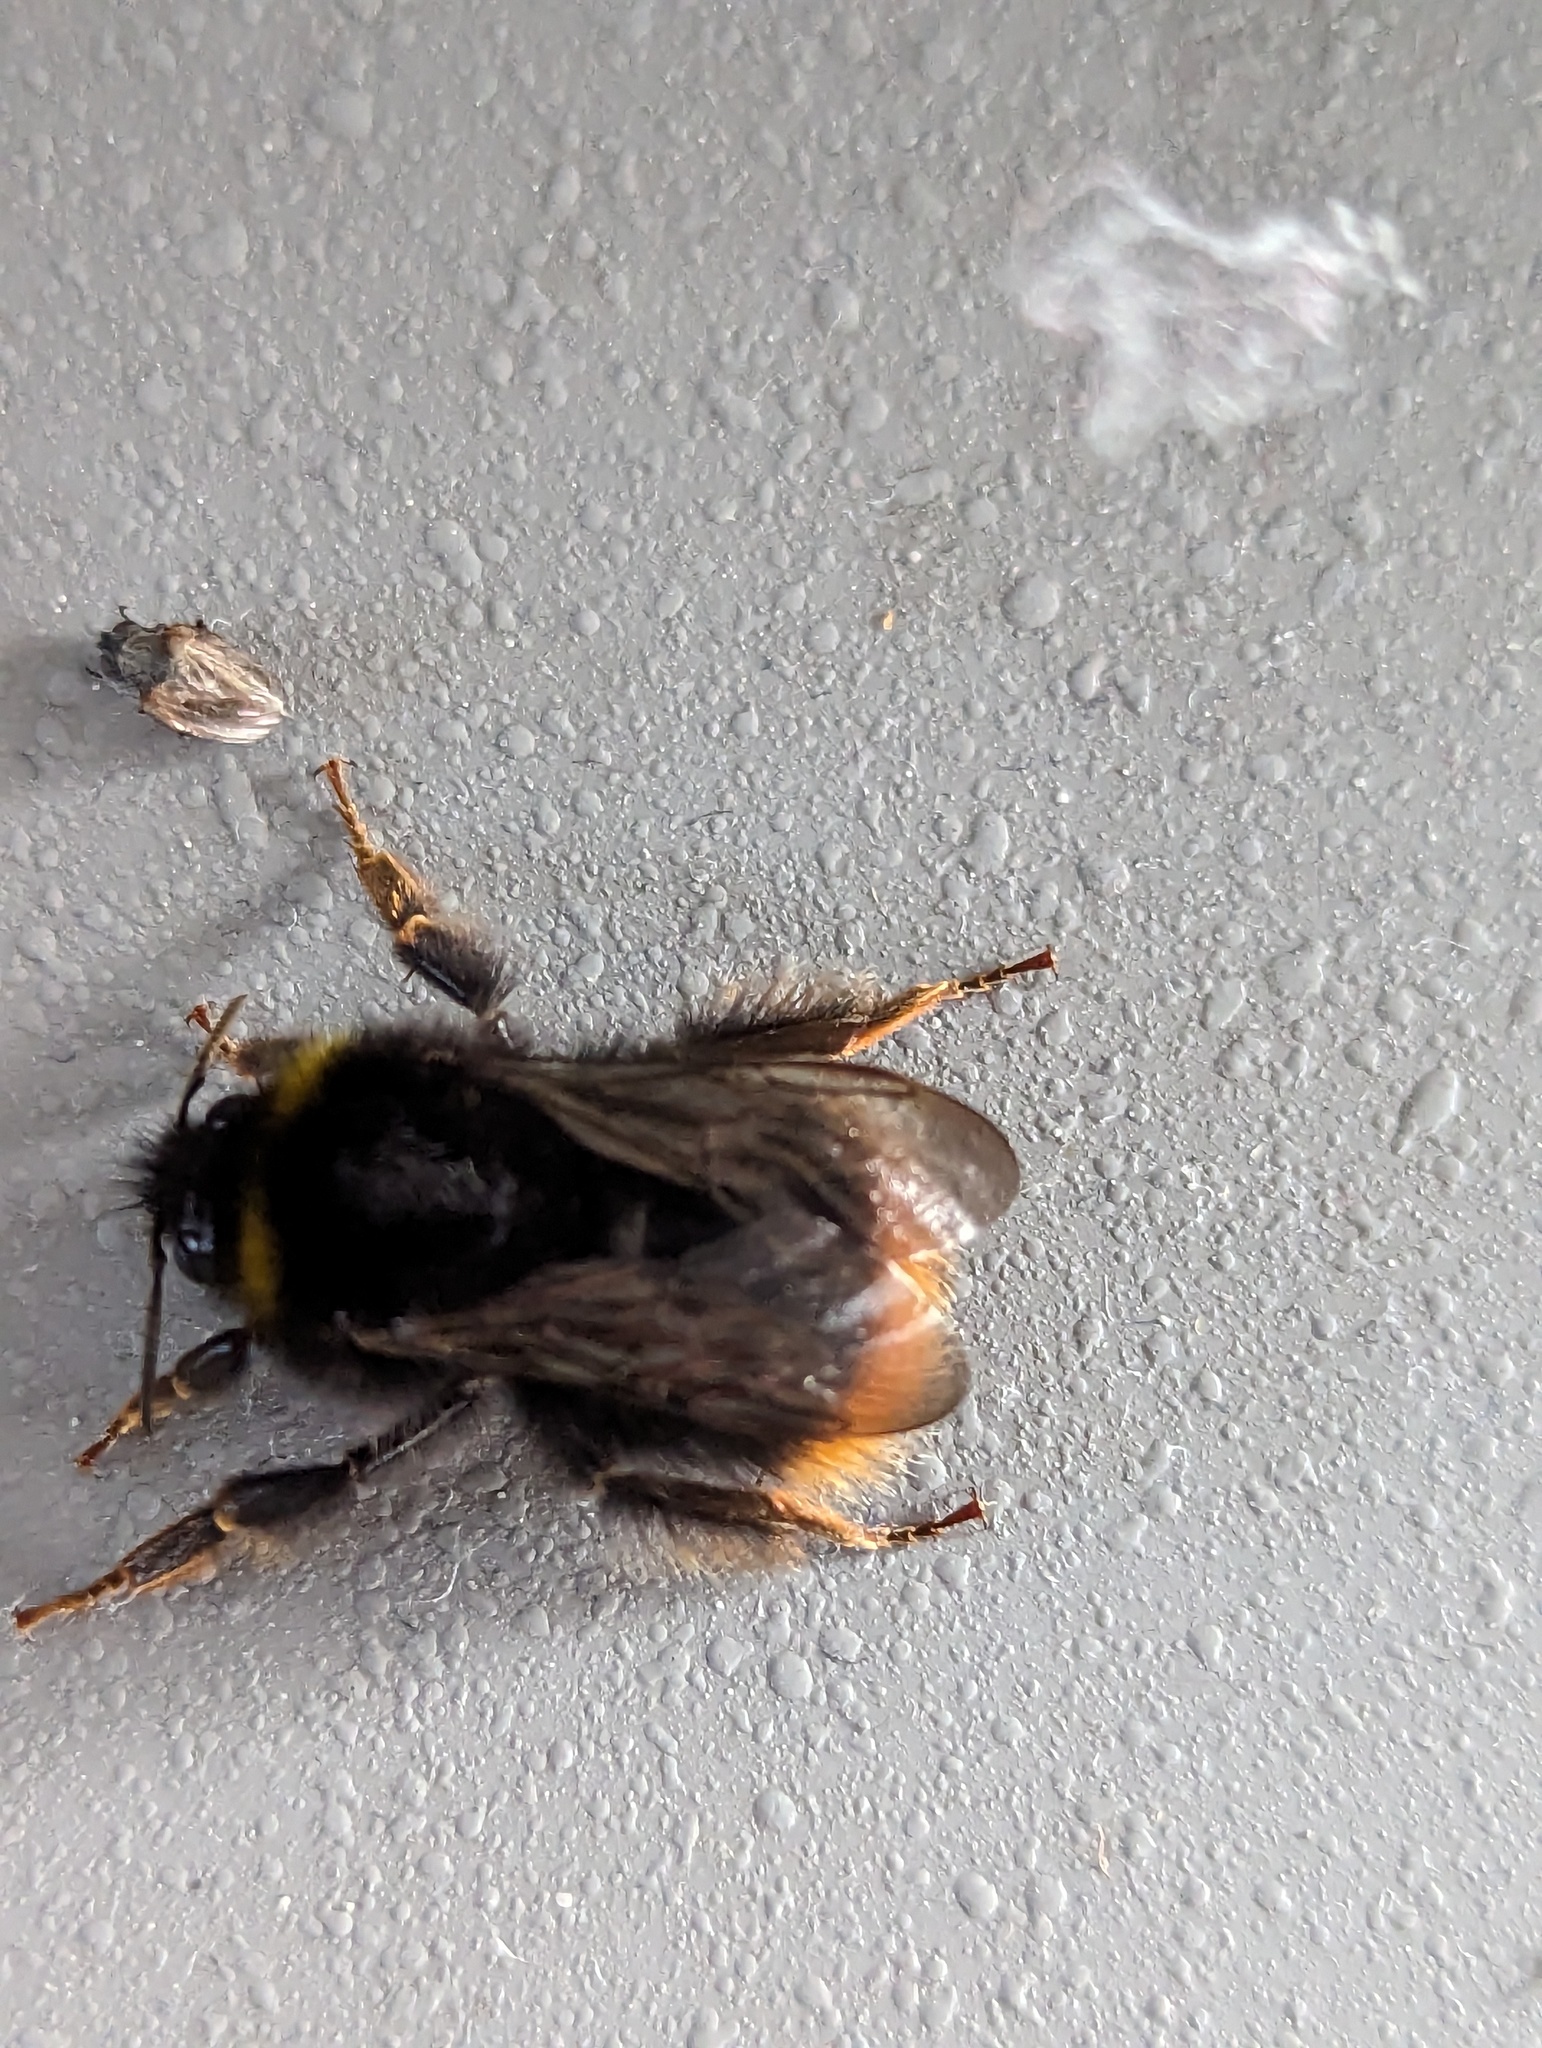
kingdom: Animalia
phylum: Arthropoda
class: Insecta
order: Hymenoptera
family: Apidae
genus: Bombus
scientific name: Bombus pratorum
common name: Early humble-bee
